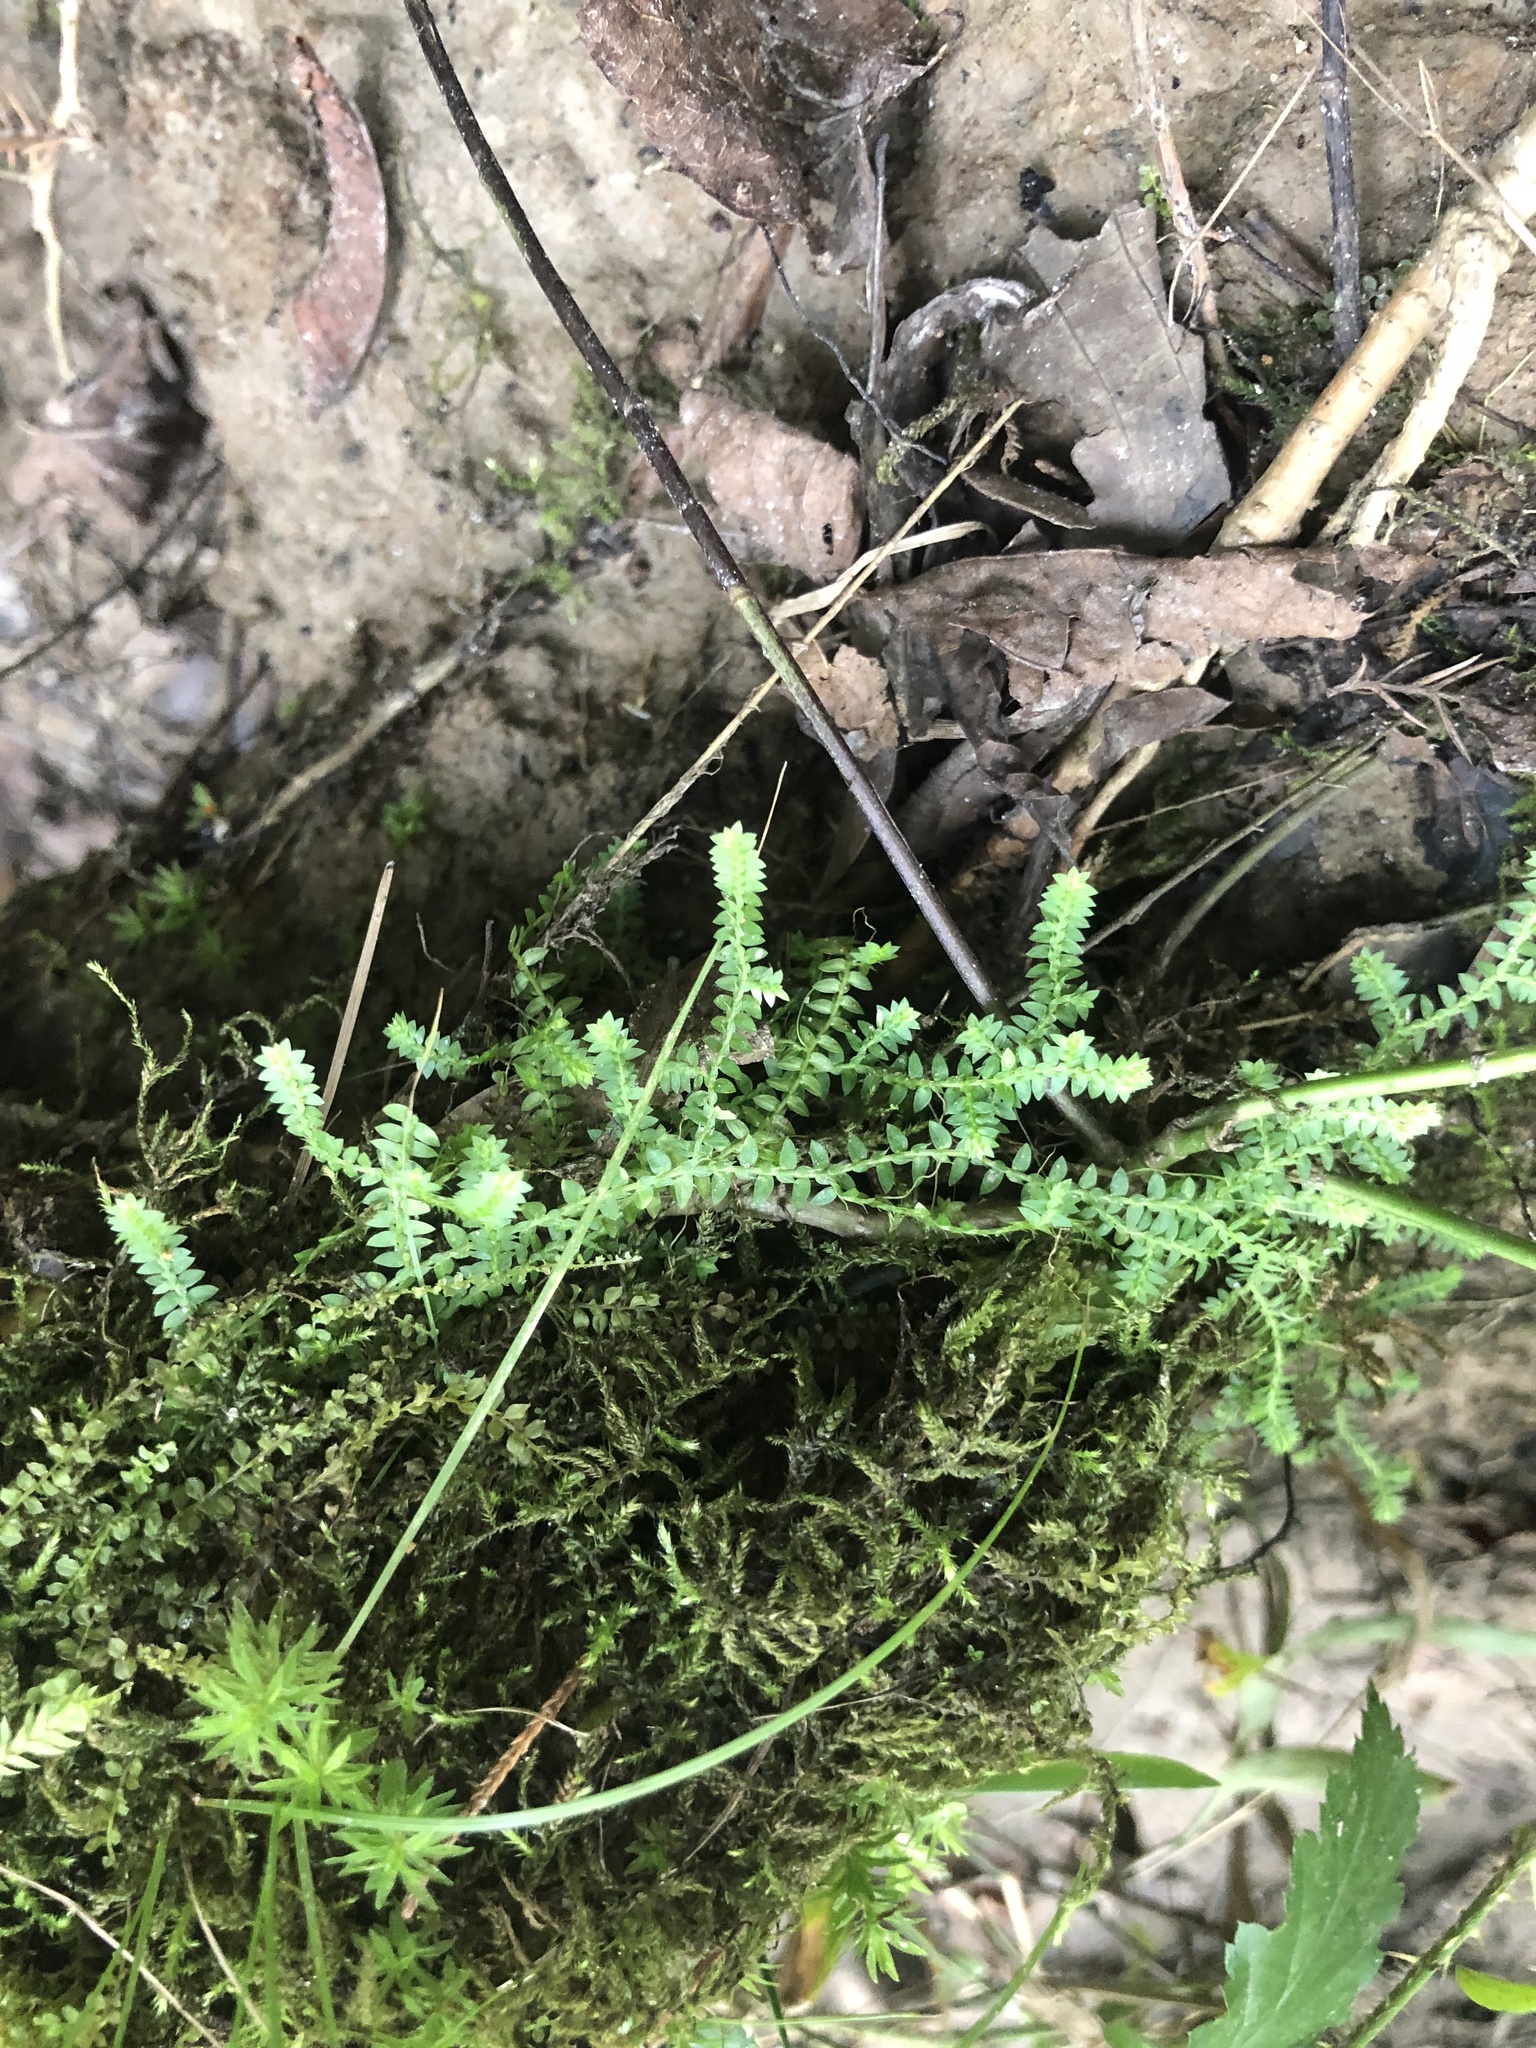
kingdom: Plantae
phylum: Tracheophyta
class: Lycopodiopsida
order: Selaginellales
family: Selaginellaceae
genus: Selaginella
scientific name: Selaginella apoda
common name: Creeping spikemoss
